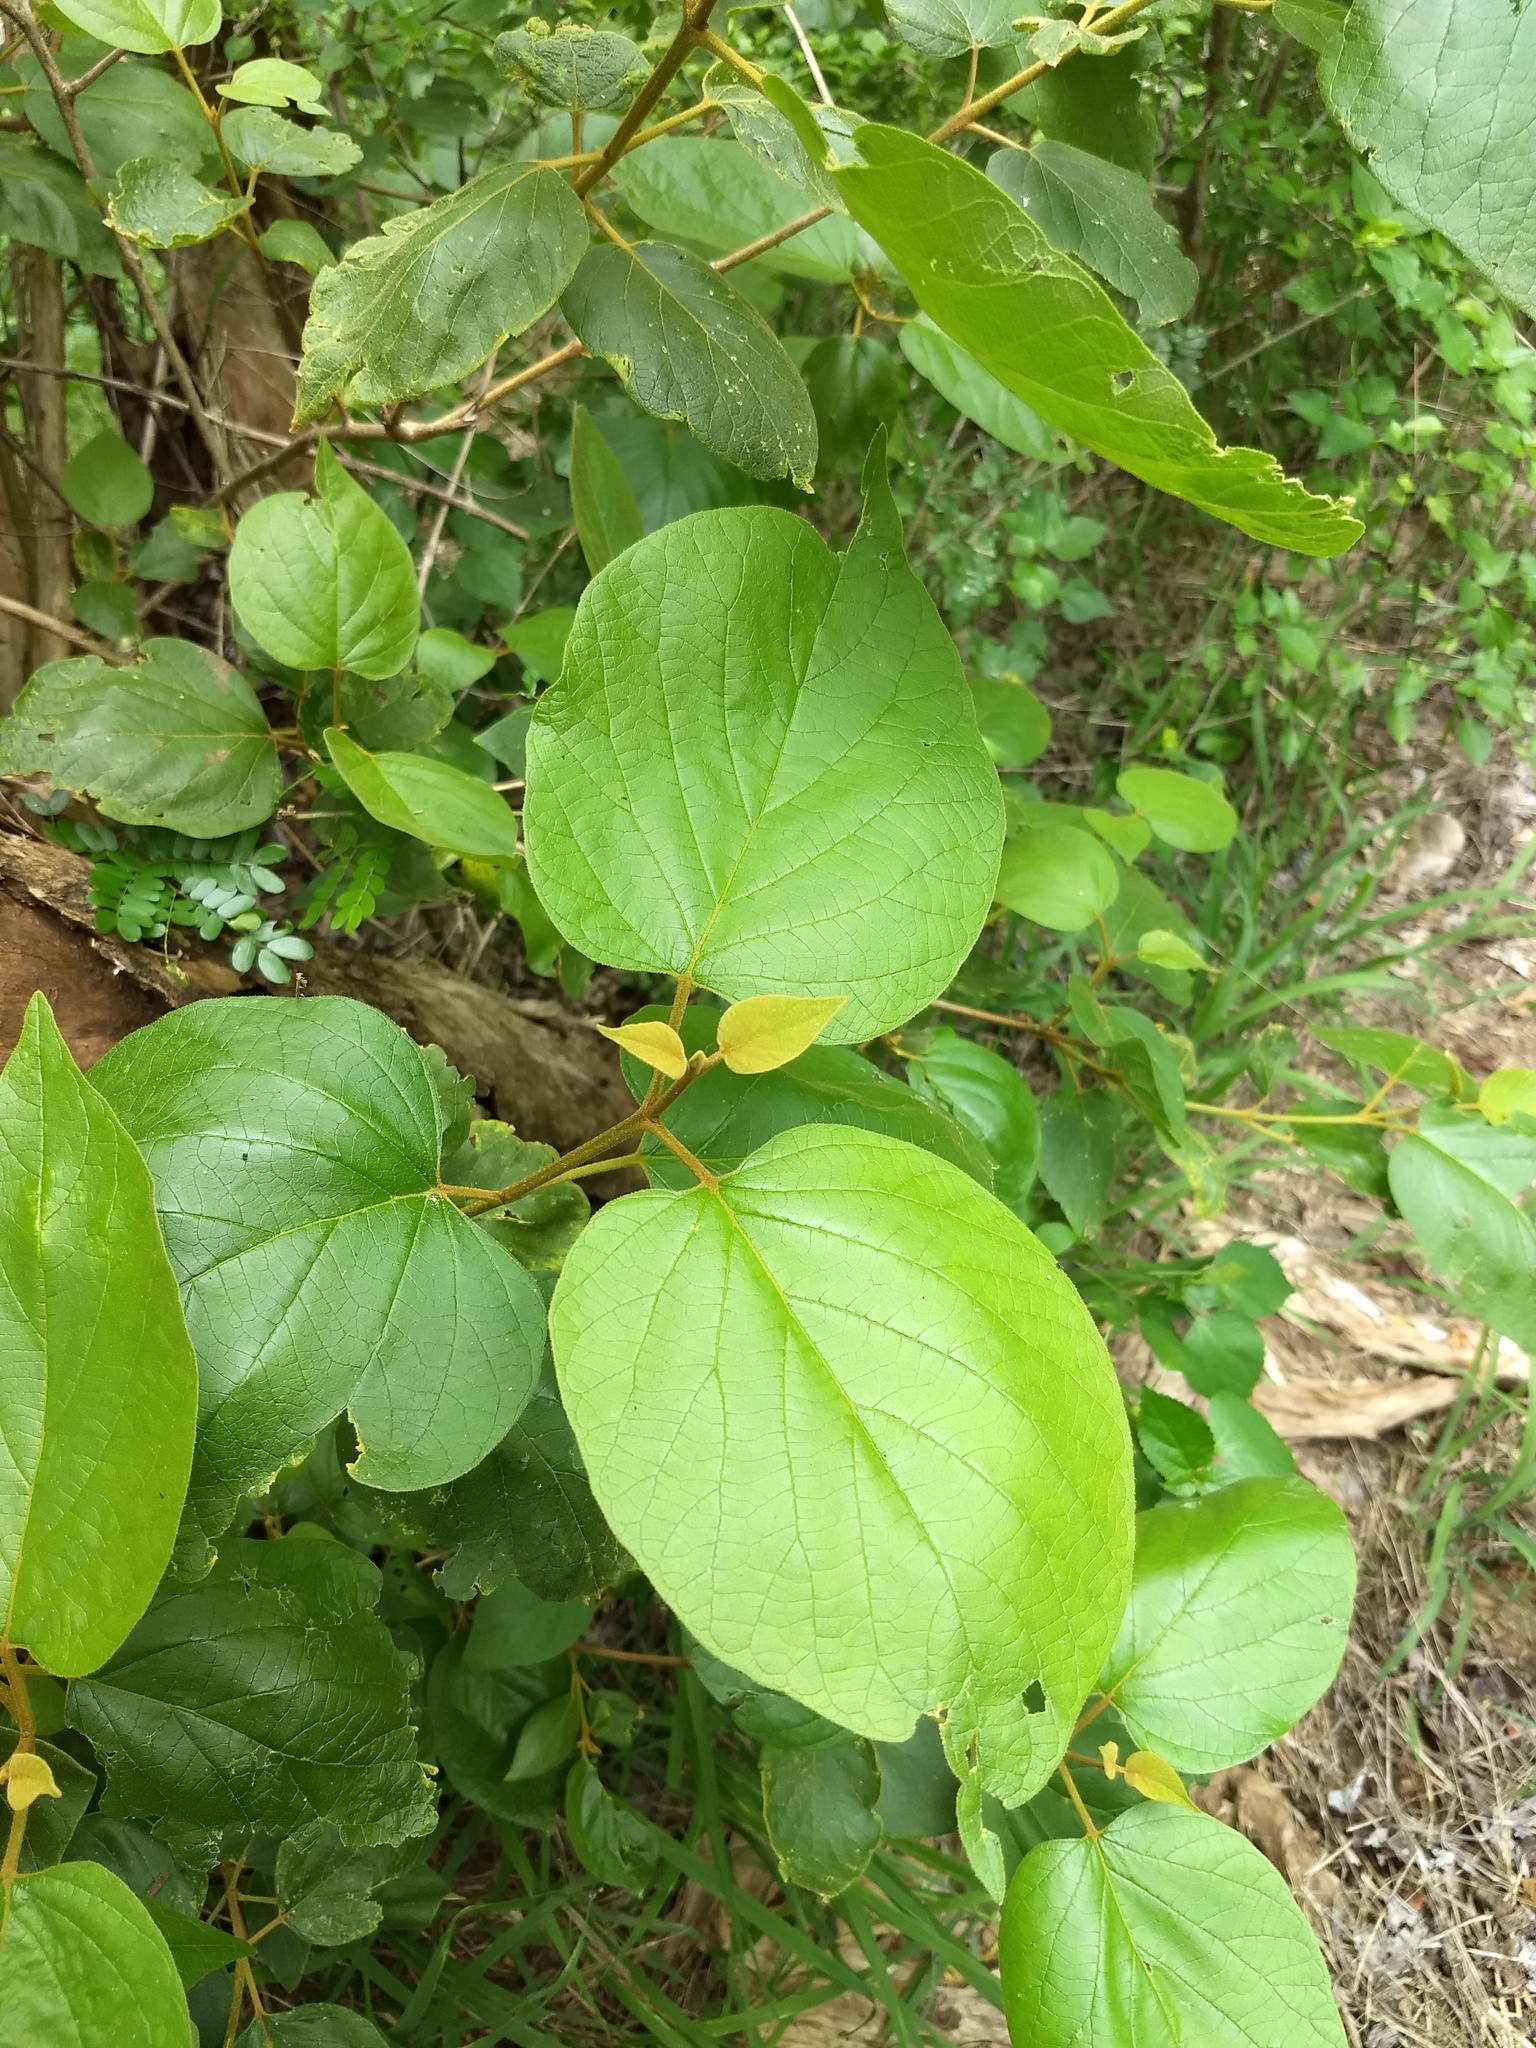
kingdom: Plantae
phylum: Tracheophyta
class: Magnoliopsida
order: Lamiales
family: Lamiaceae
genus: Premna
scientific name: Premna tomentosa
